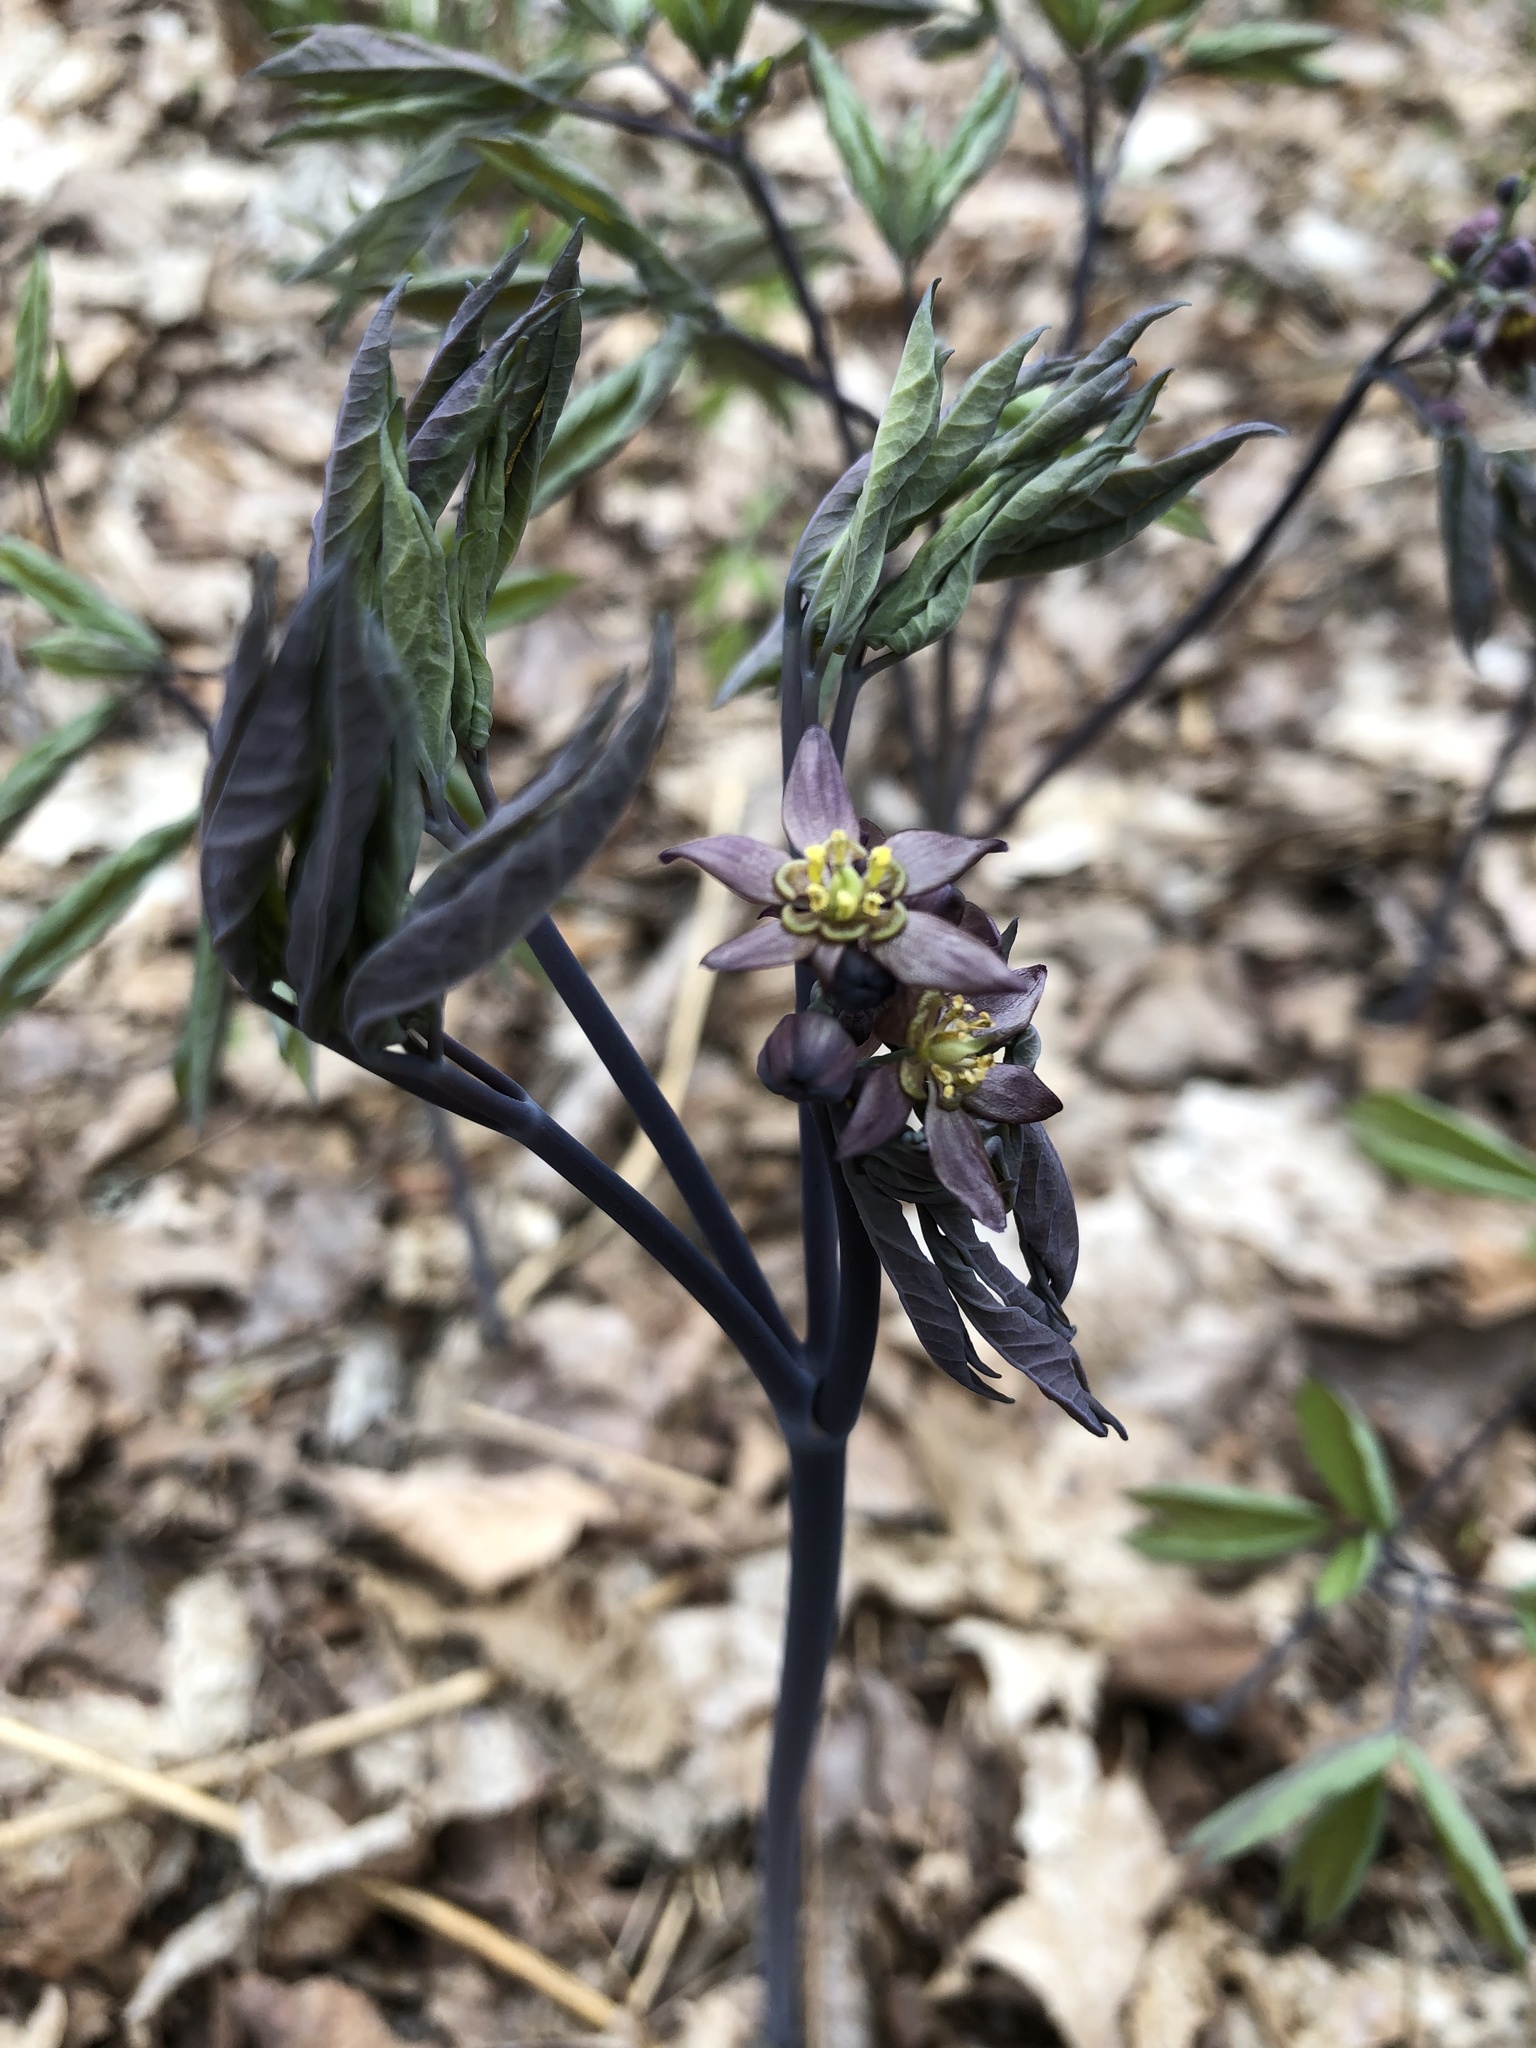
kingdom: Plantae
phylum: Tracheophyta
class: Magnoliopsida
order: Ranunculales
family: Berberidaceae
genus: Caulophyllum
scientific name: Caulophyllum giganteum
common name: Blue cohosh
